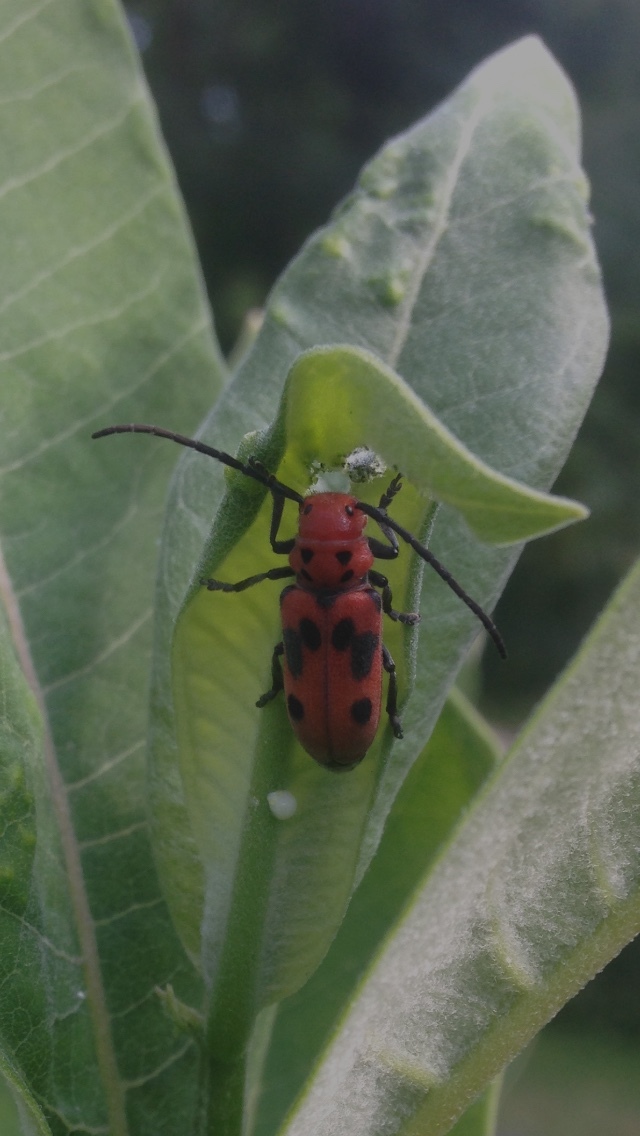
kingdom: Animalia
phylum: Arthropoda
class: Insecta
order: Coleoptera
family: Cerambycidae
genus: Tetraopes
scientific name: Tetraopes tetrophthalmus
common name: Red milkweed beetle
